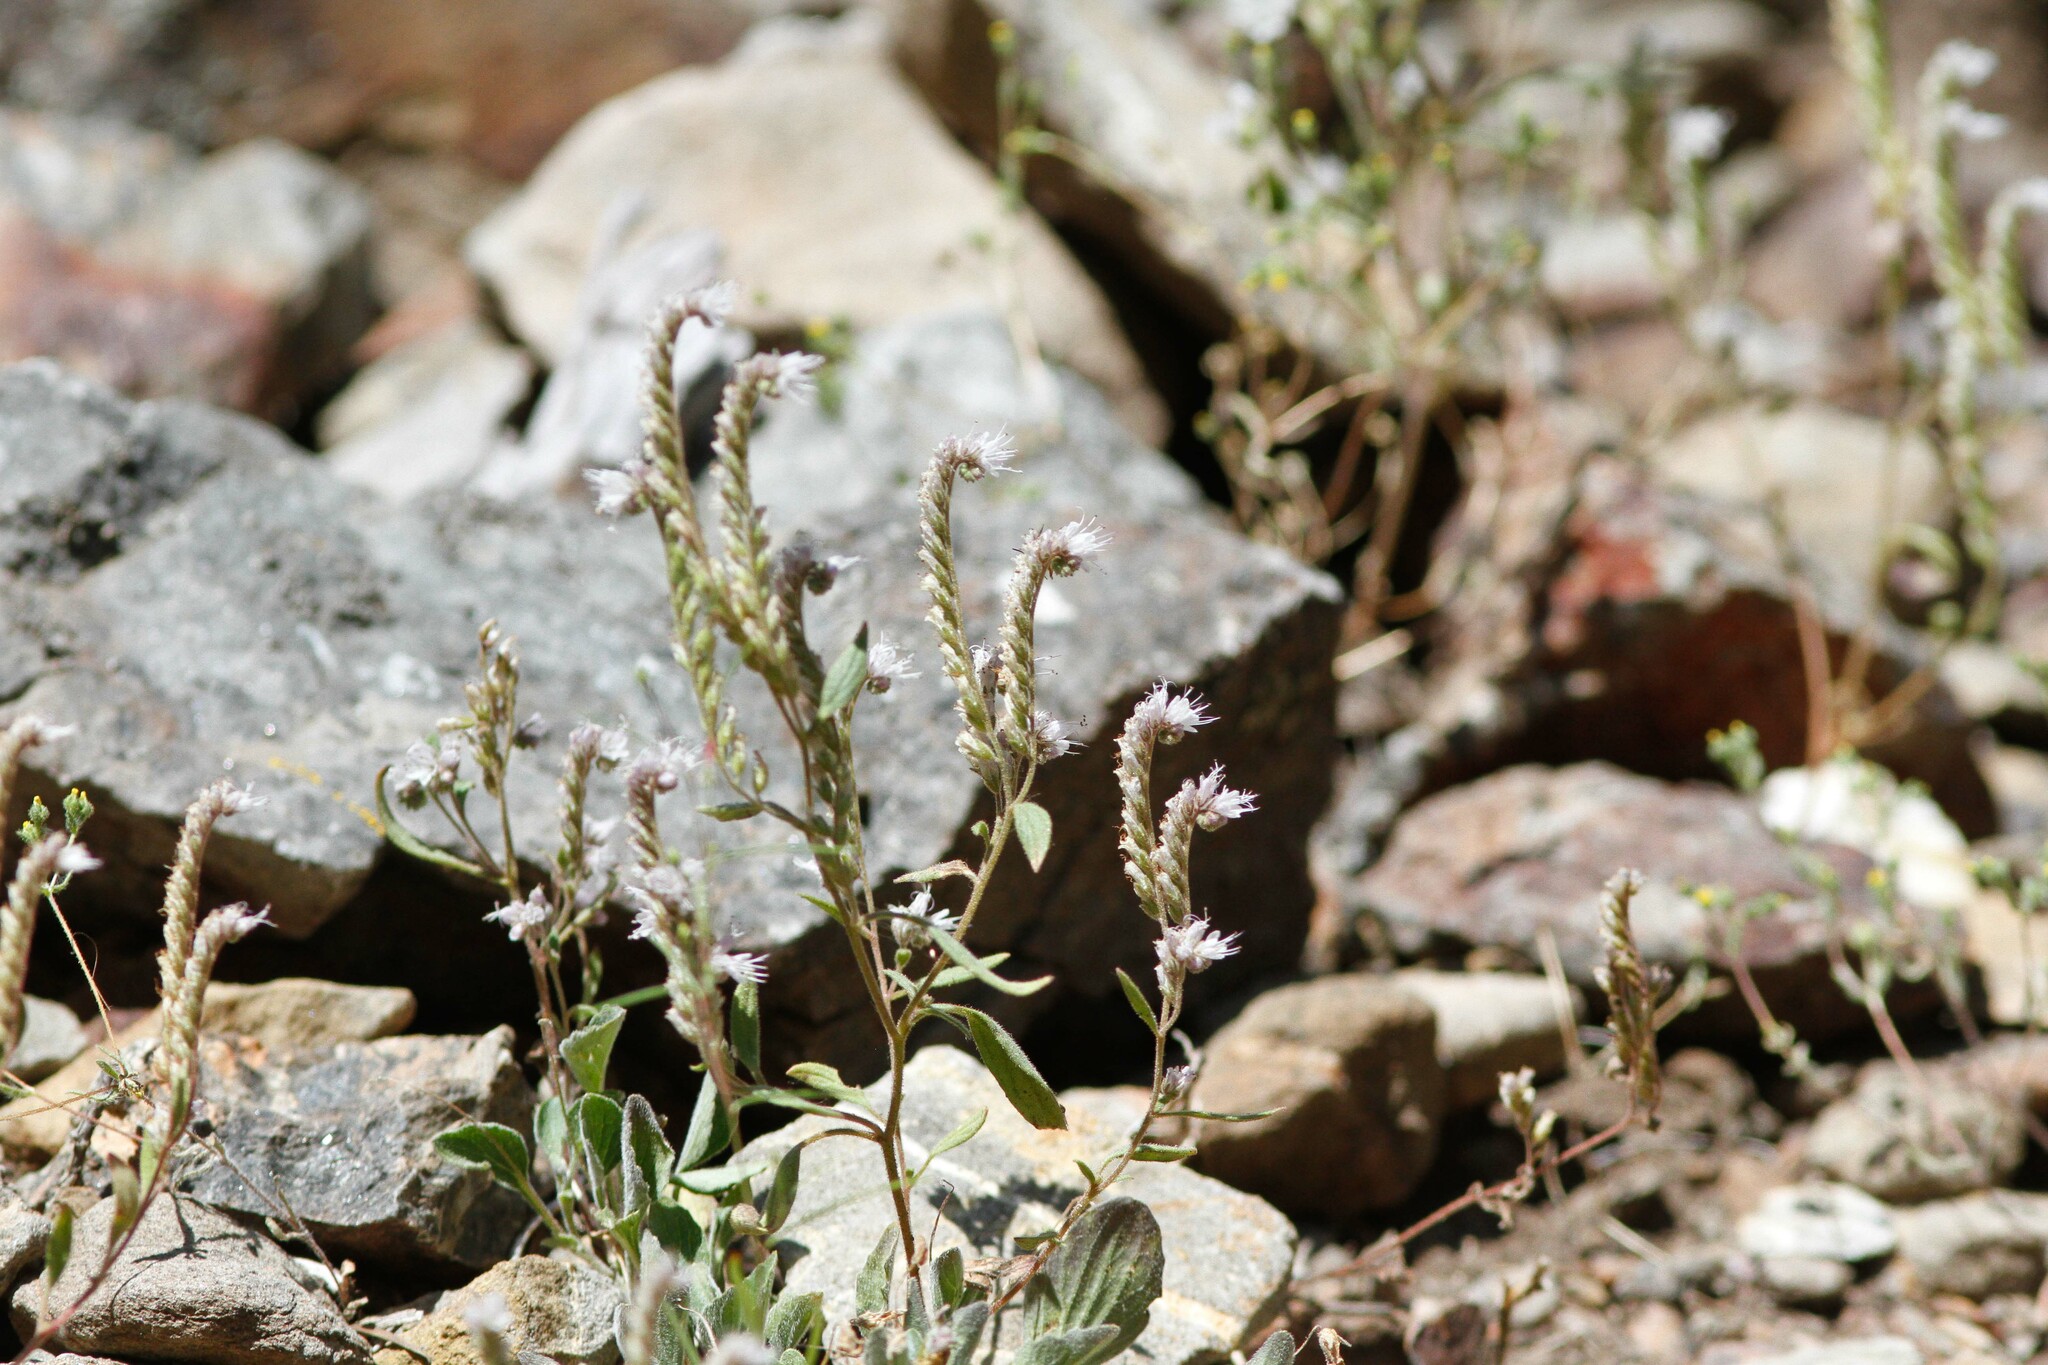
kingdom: Plantae
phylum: Tracheophyta
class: Magnoliopsida
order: Boraginales
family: Hydrophyllaceae
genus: Phacelia
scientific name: Phacelia stebbinsii
